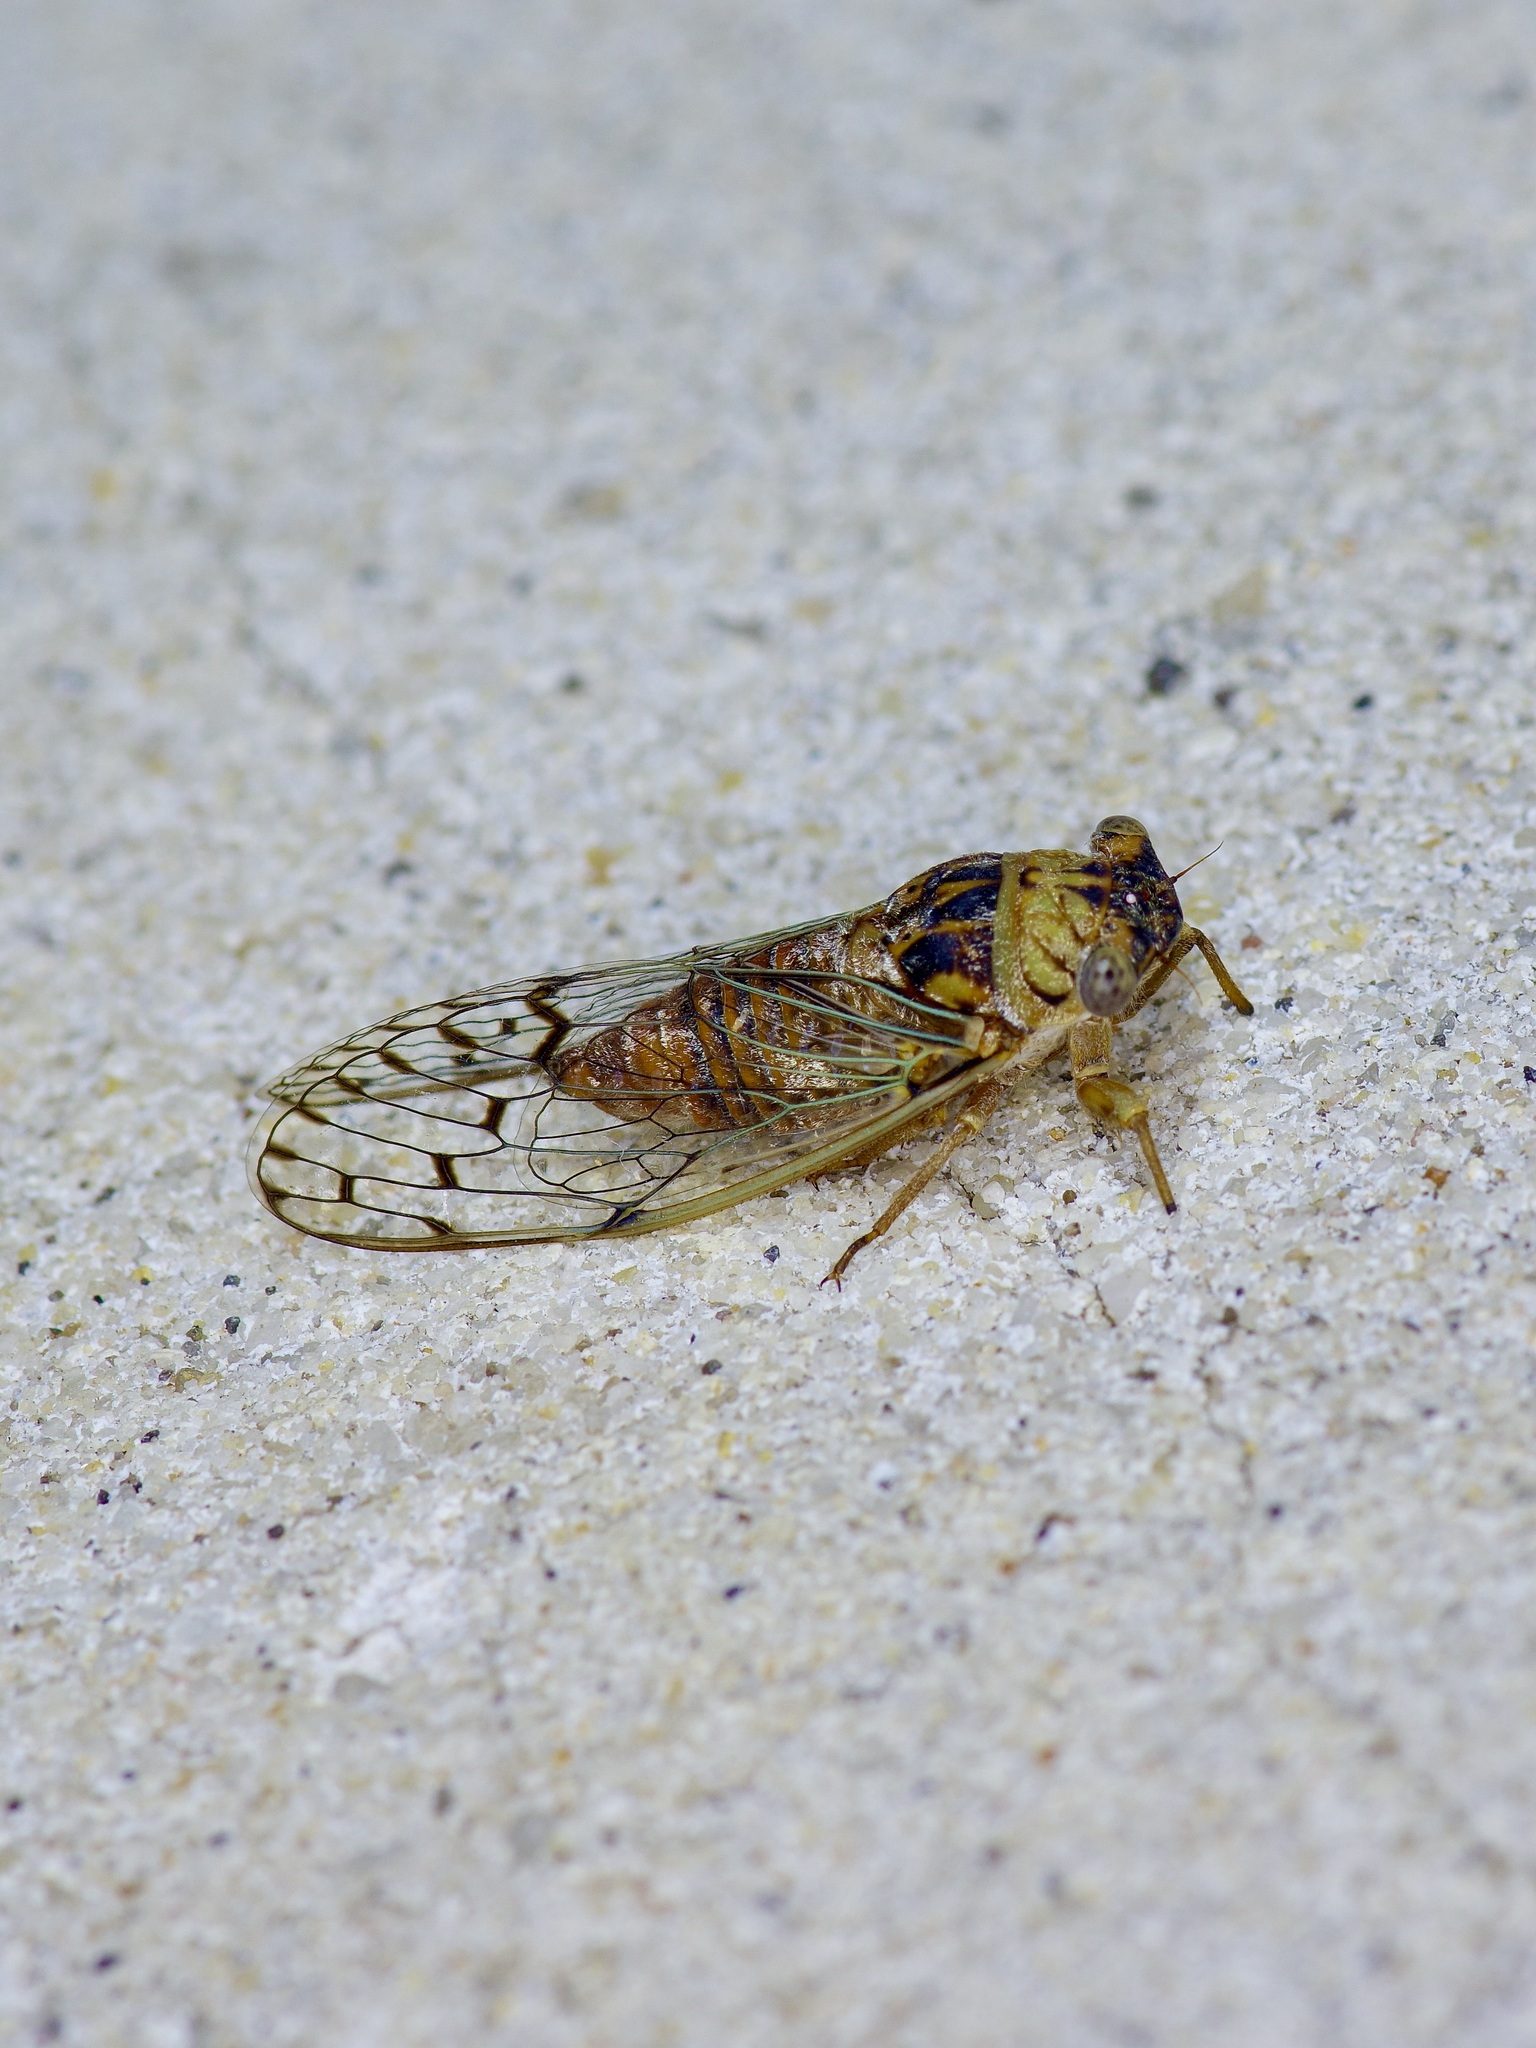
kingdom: Animalia
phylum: Arthropoda
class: Insecta
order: Hemiptera
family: Cicadidae
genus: Pacarina
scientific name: Pacarina puella
